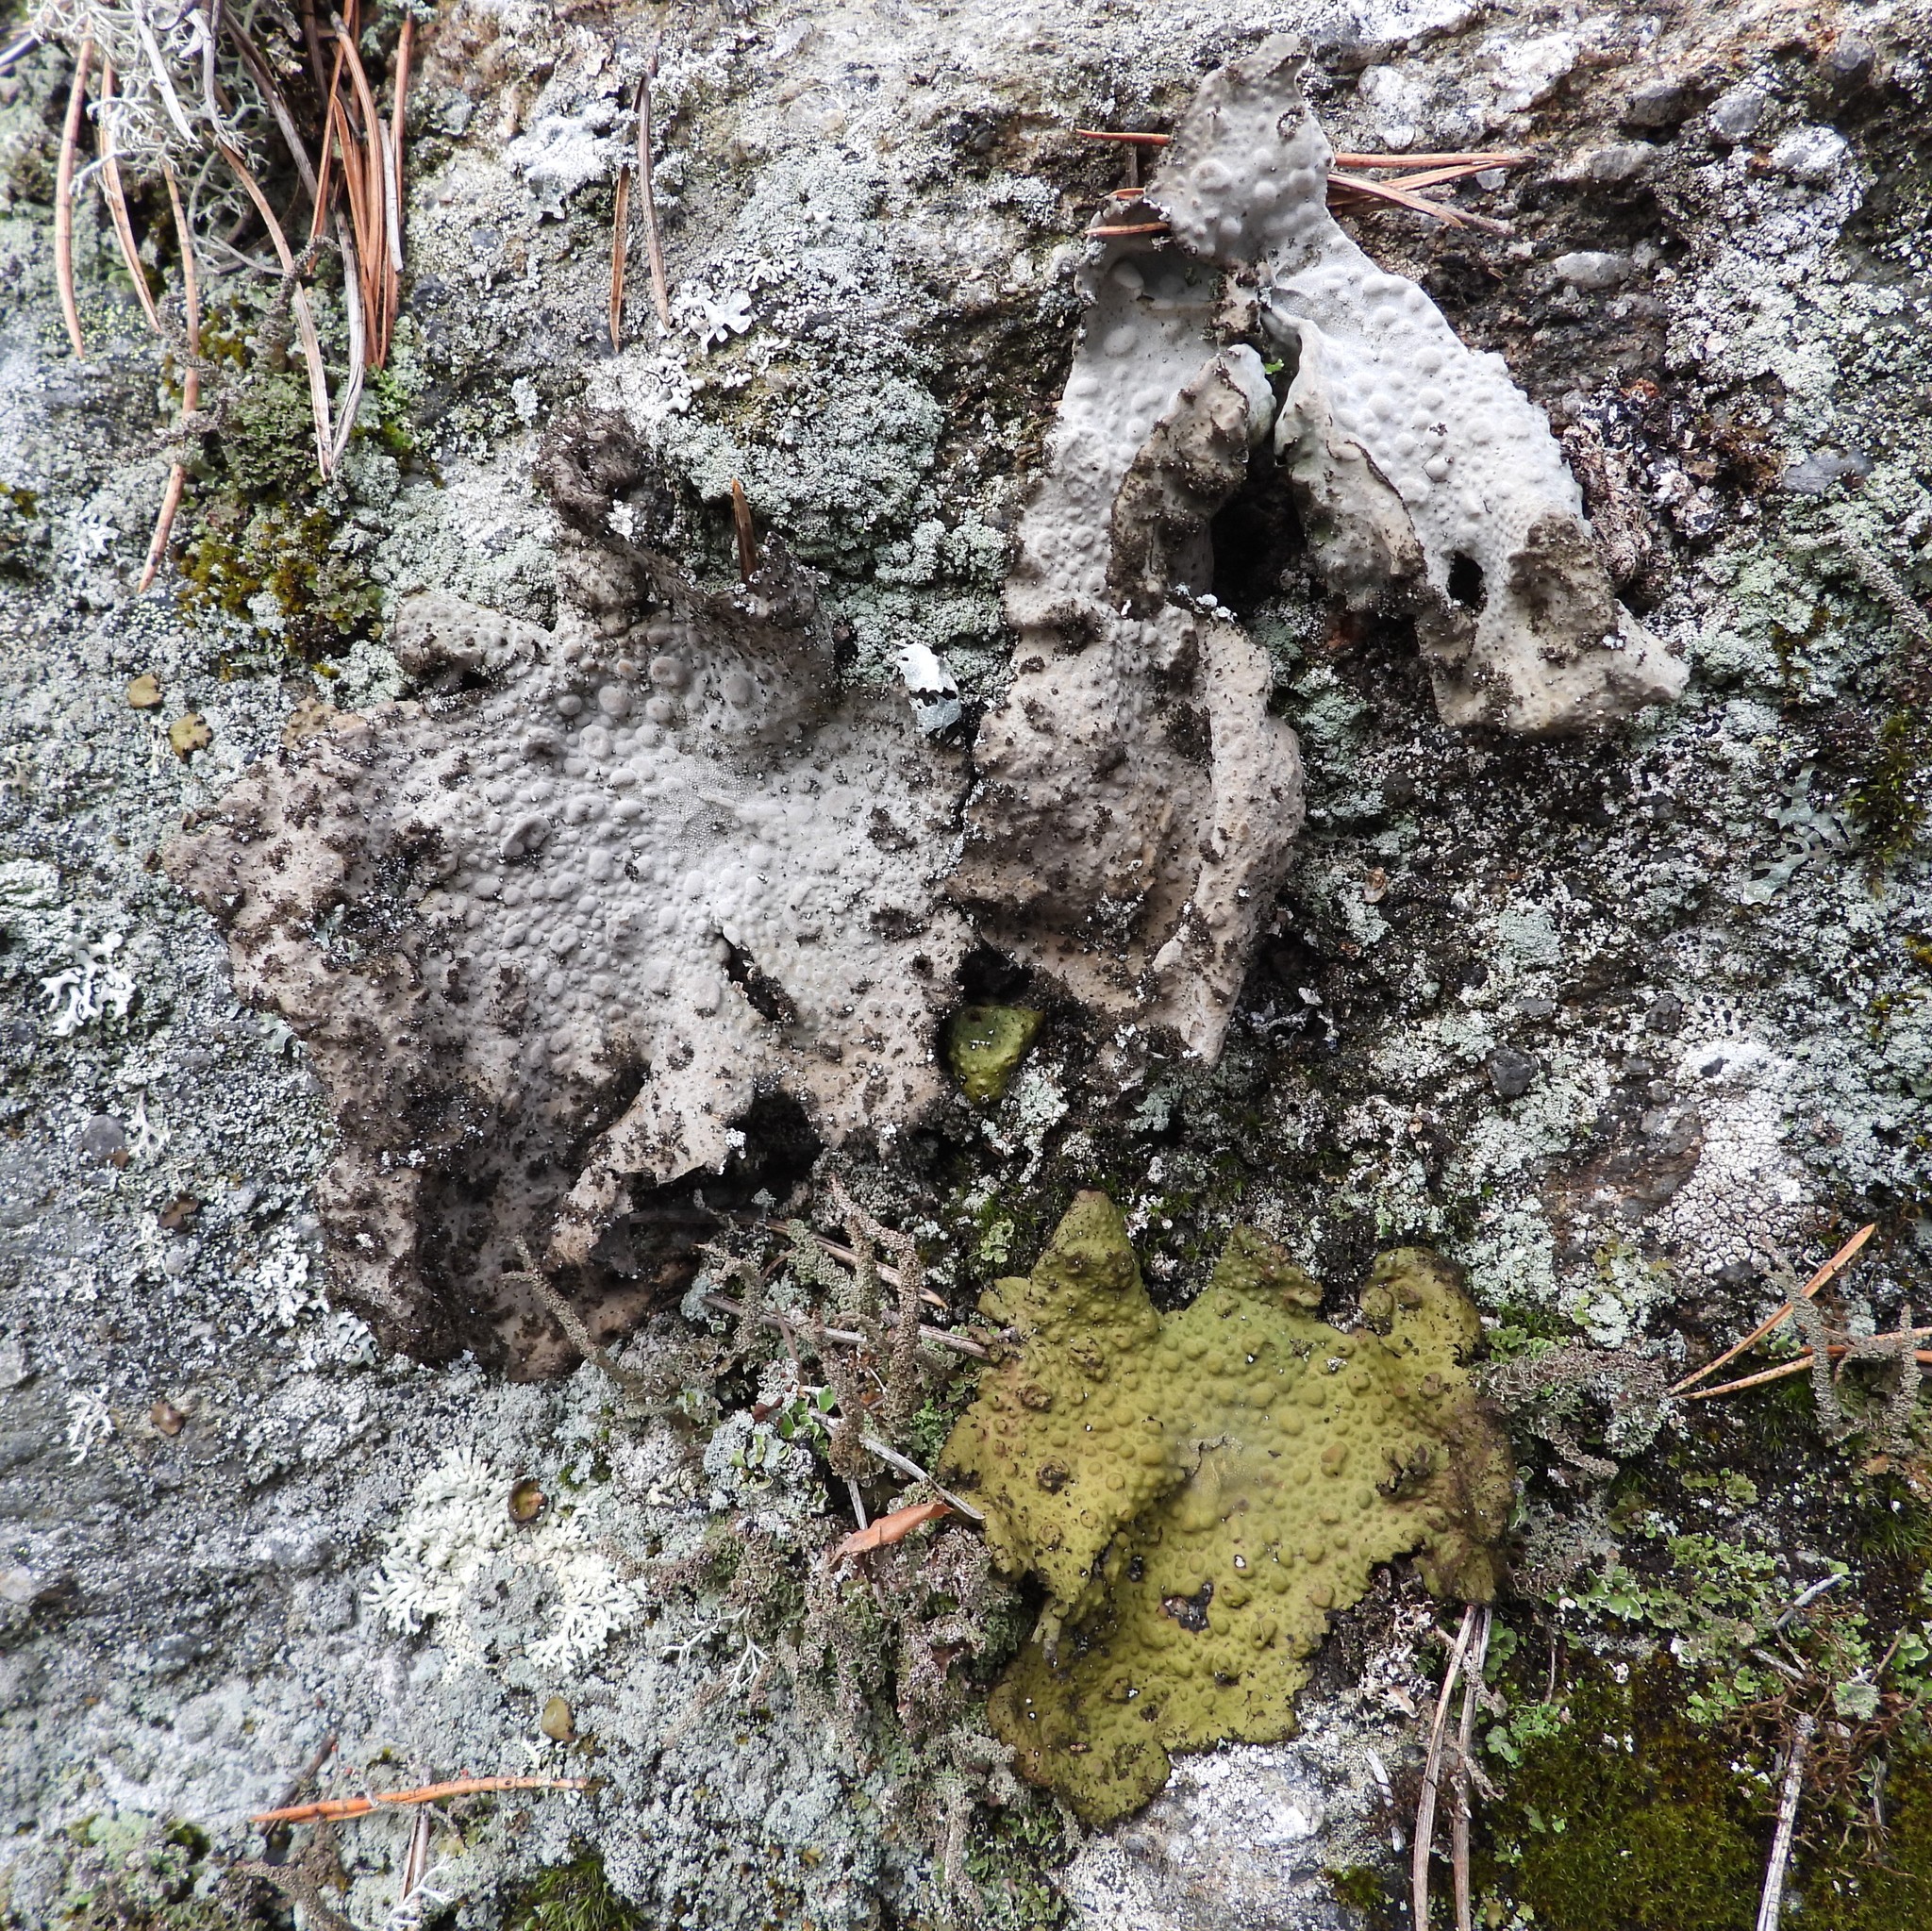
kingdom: Fungi
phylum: Ascomycota
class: Lecanoromycetes
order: Umbilicariales
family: Umbilicariaceae
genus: Lasallia
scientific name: Lasallia pustulata
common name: Blistered toadskin lichen
